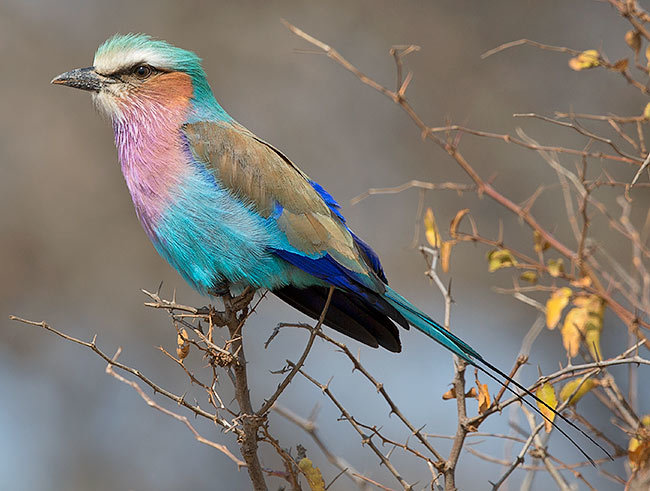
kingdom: Animalia
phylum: Chordata
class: Aves
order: Coraciiformes
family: Coraciidae
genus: Coracias
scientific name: Coracias caudatus
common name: Lilac-breasted roller
